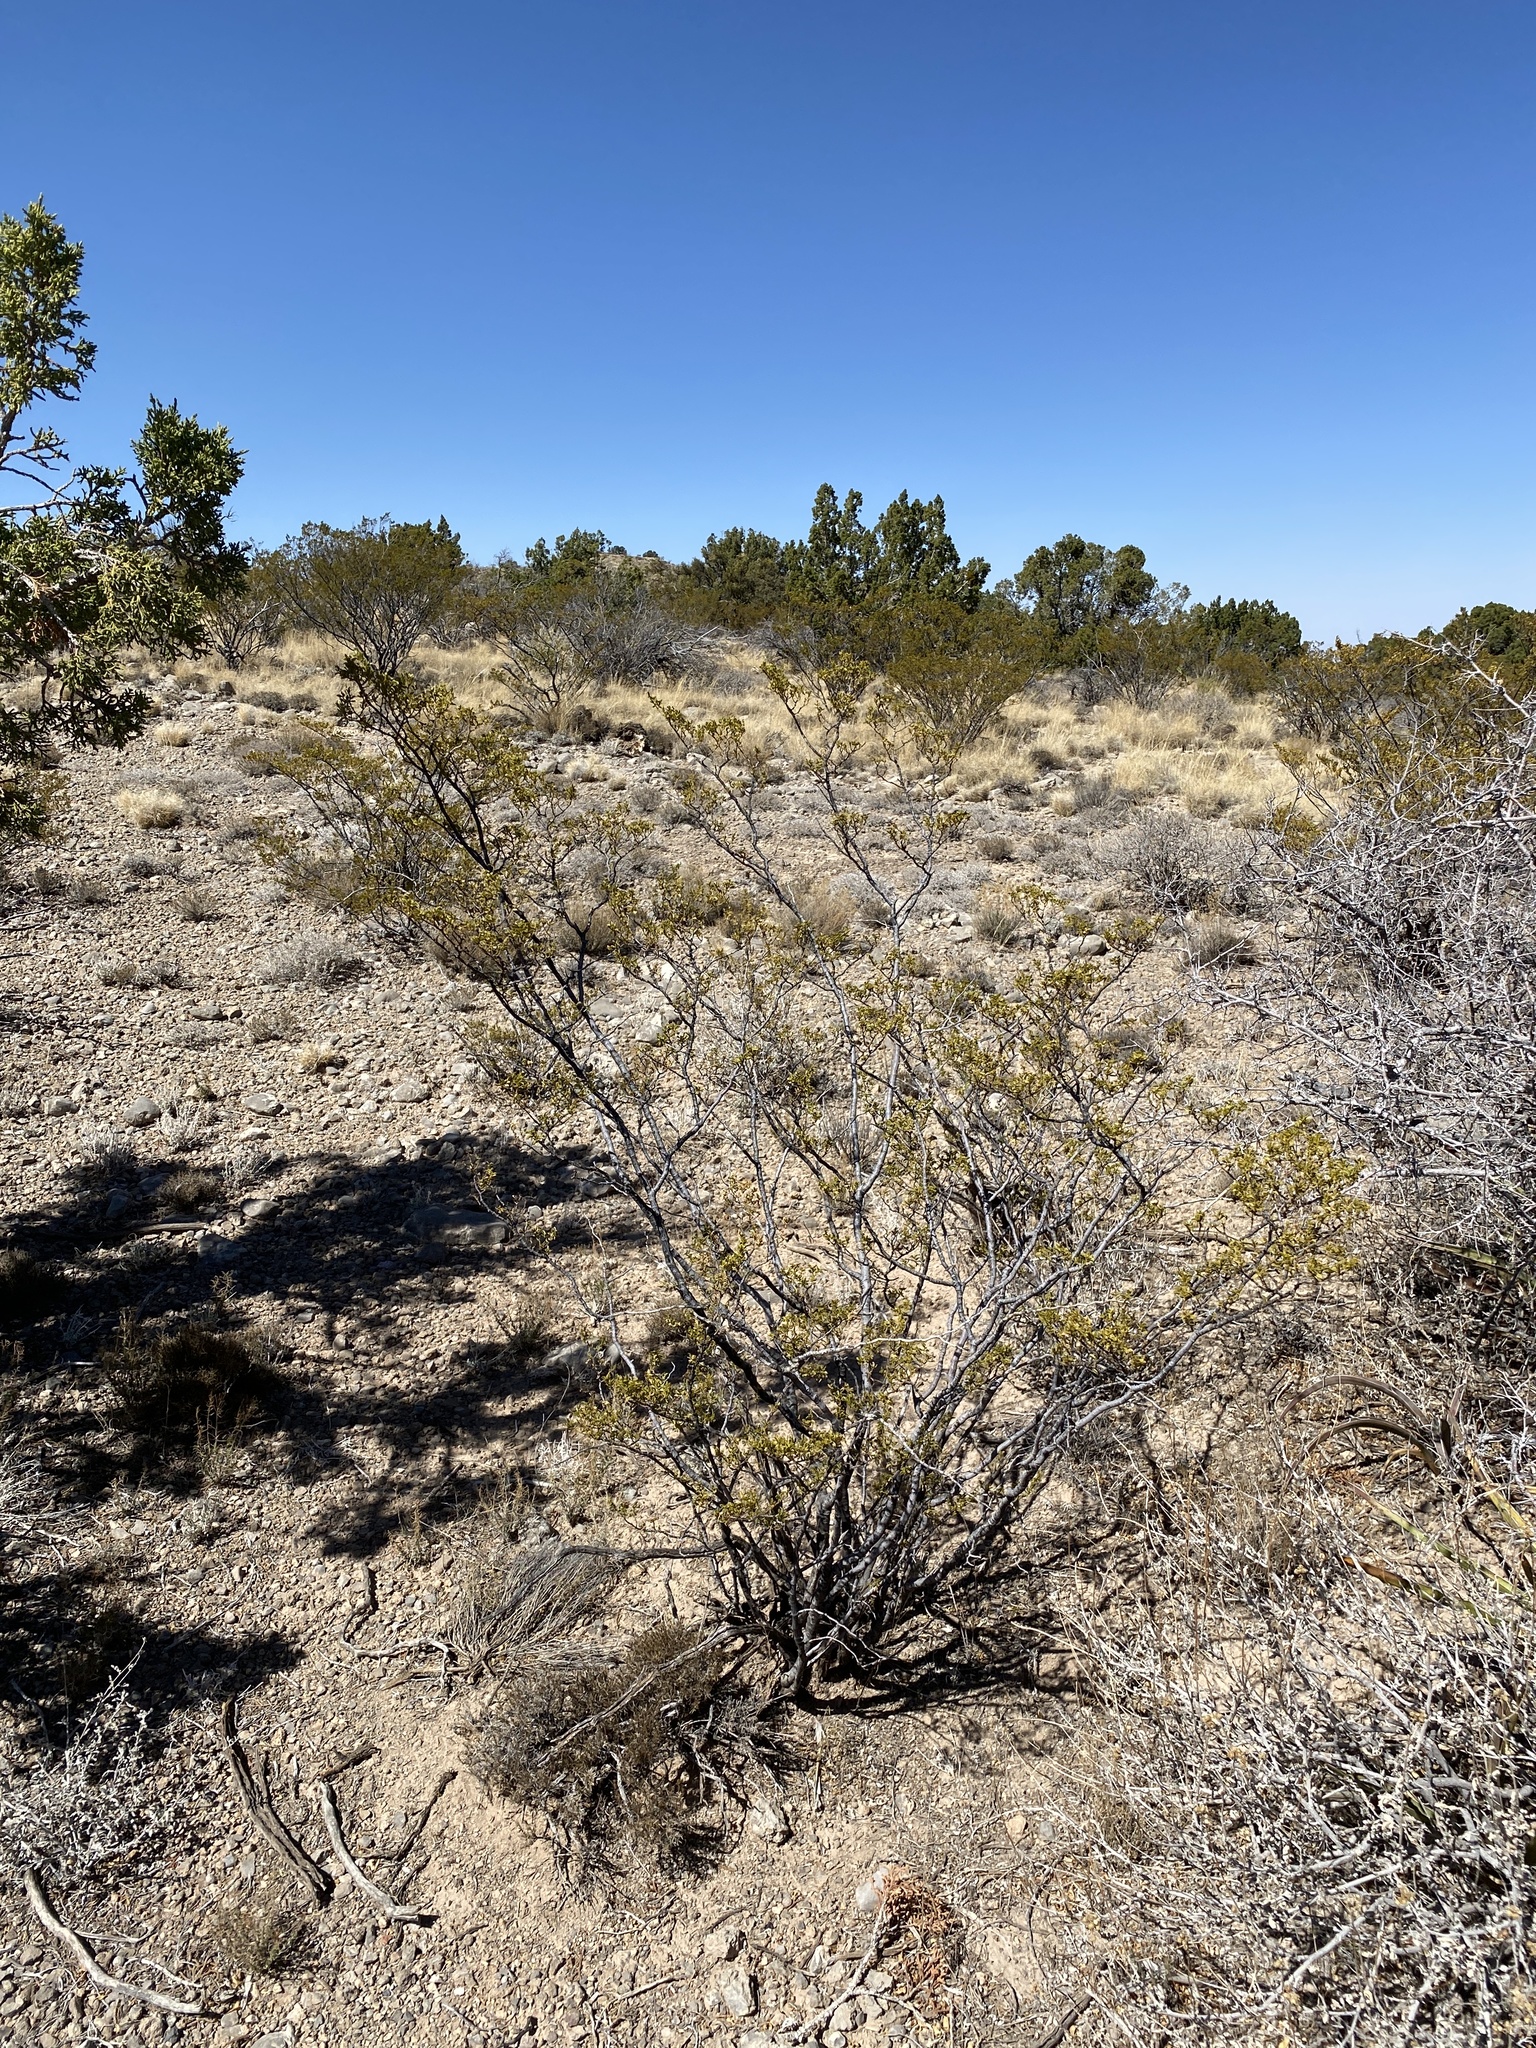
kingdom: Plantae
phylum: Tracheophyta
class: Magnoliopsida
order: Zygophyllales
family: Zygophyllaceae
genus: Larrea
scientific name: Larrea tridentata
